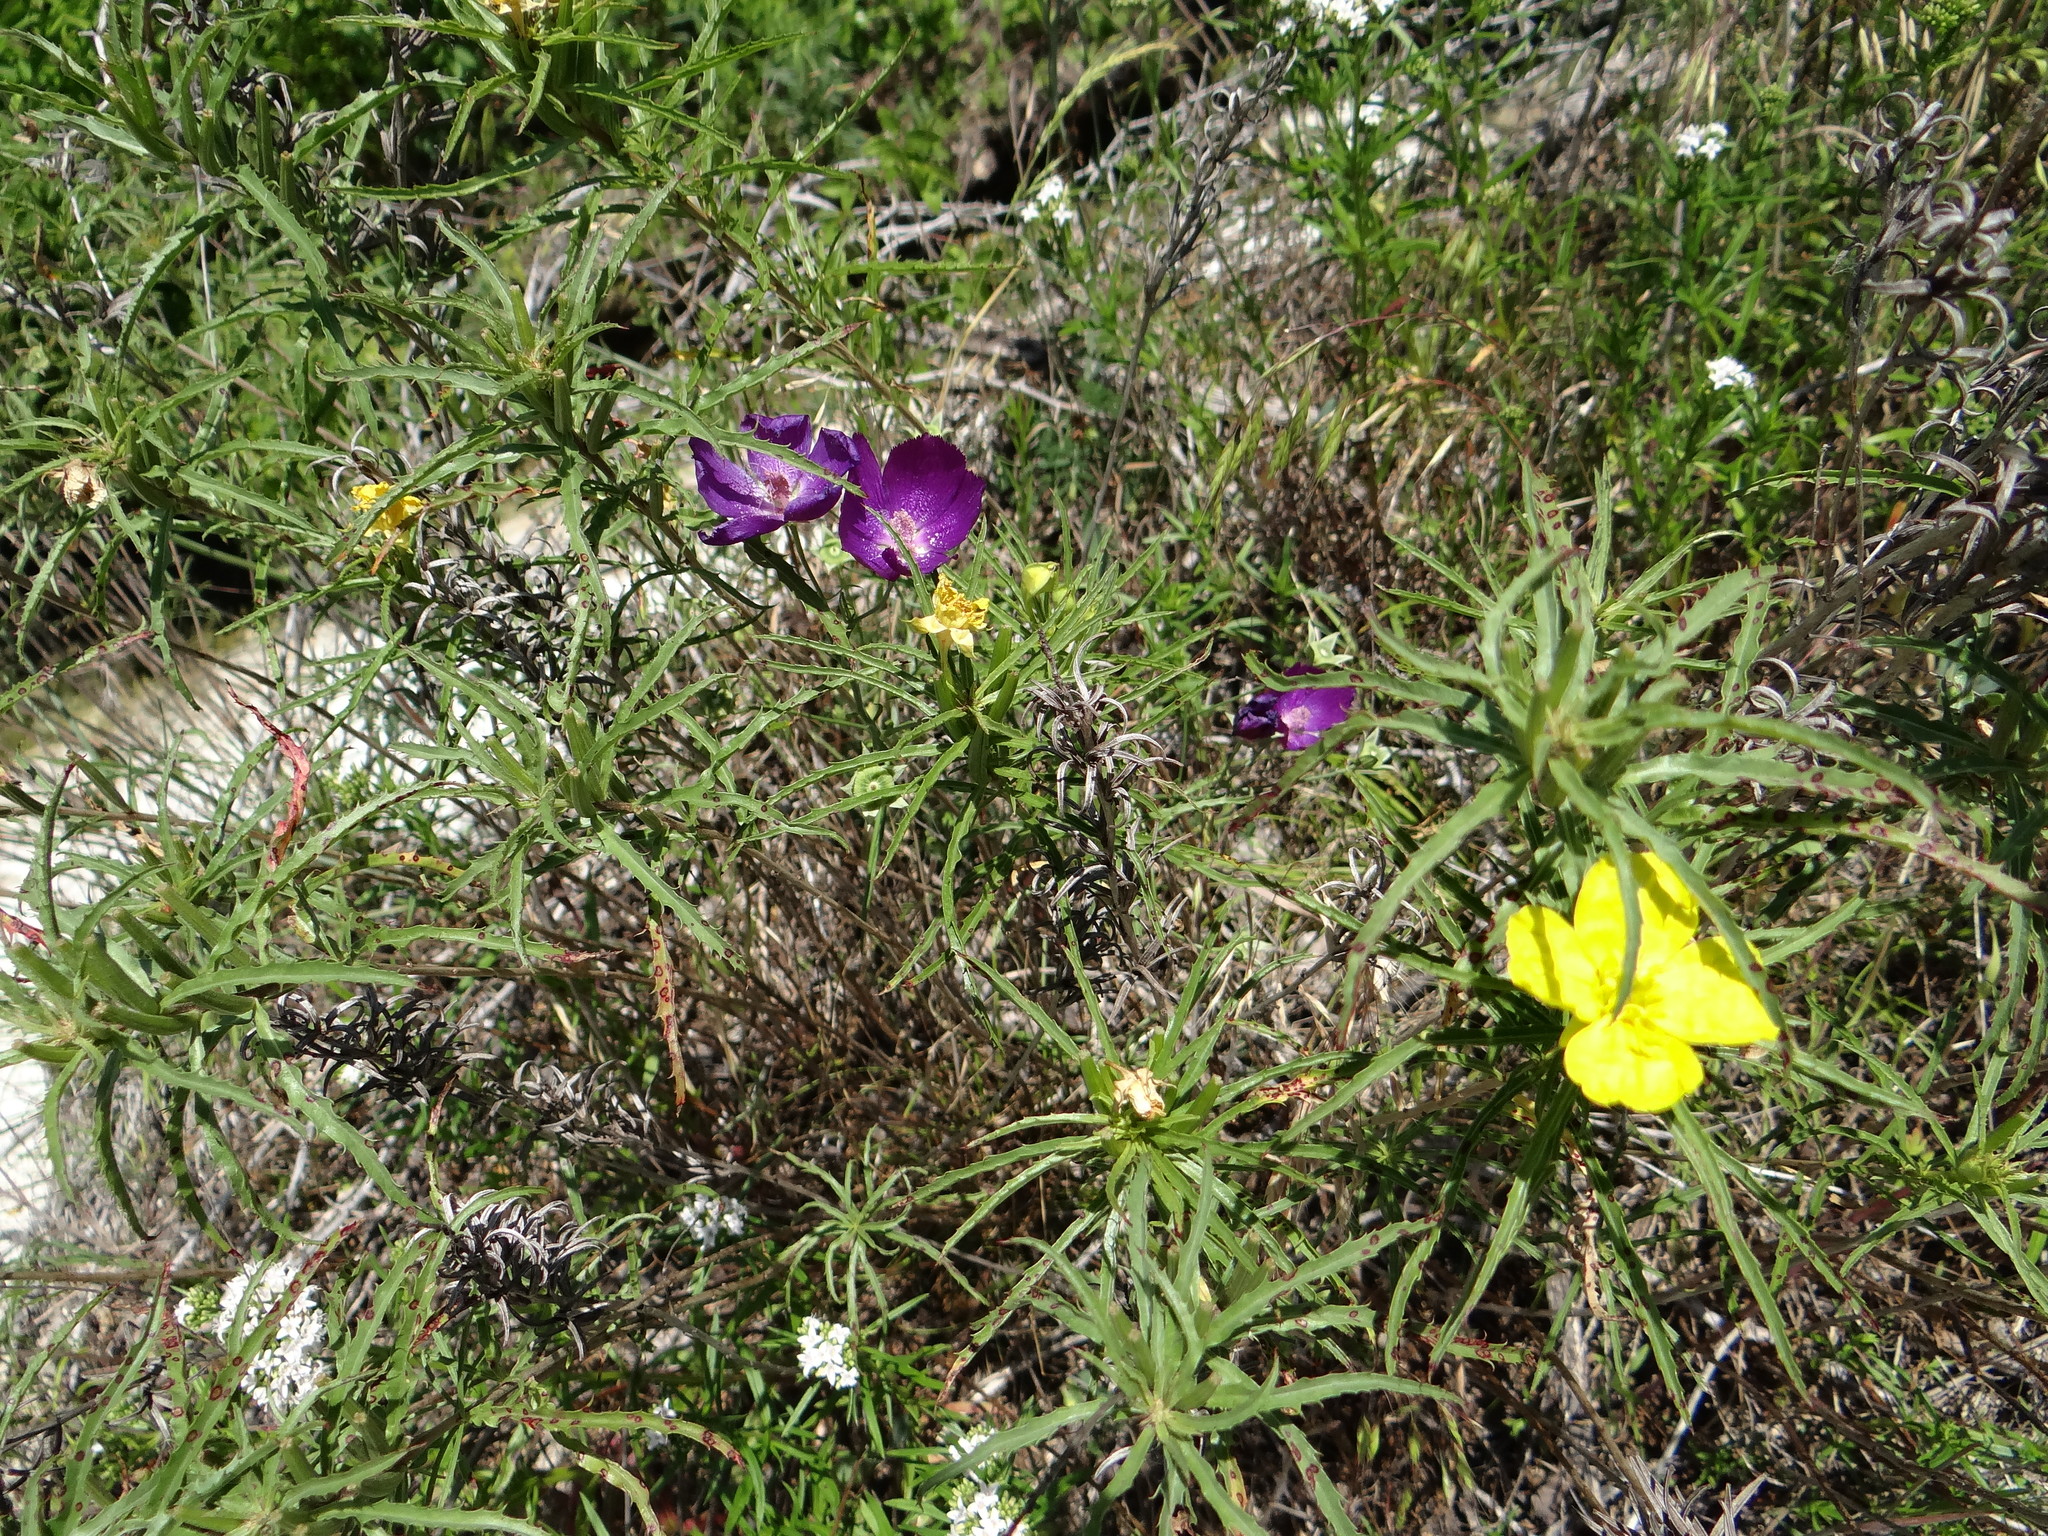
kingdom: Plantae
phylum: Tracheophyta
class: Magnoliopsida
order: Myrtales
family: Onagraceae
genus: Oenothera
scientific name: Oenothera
